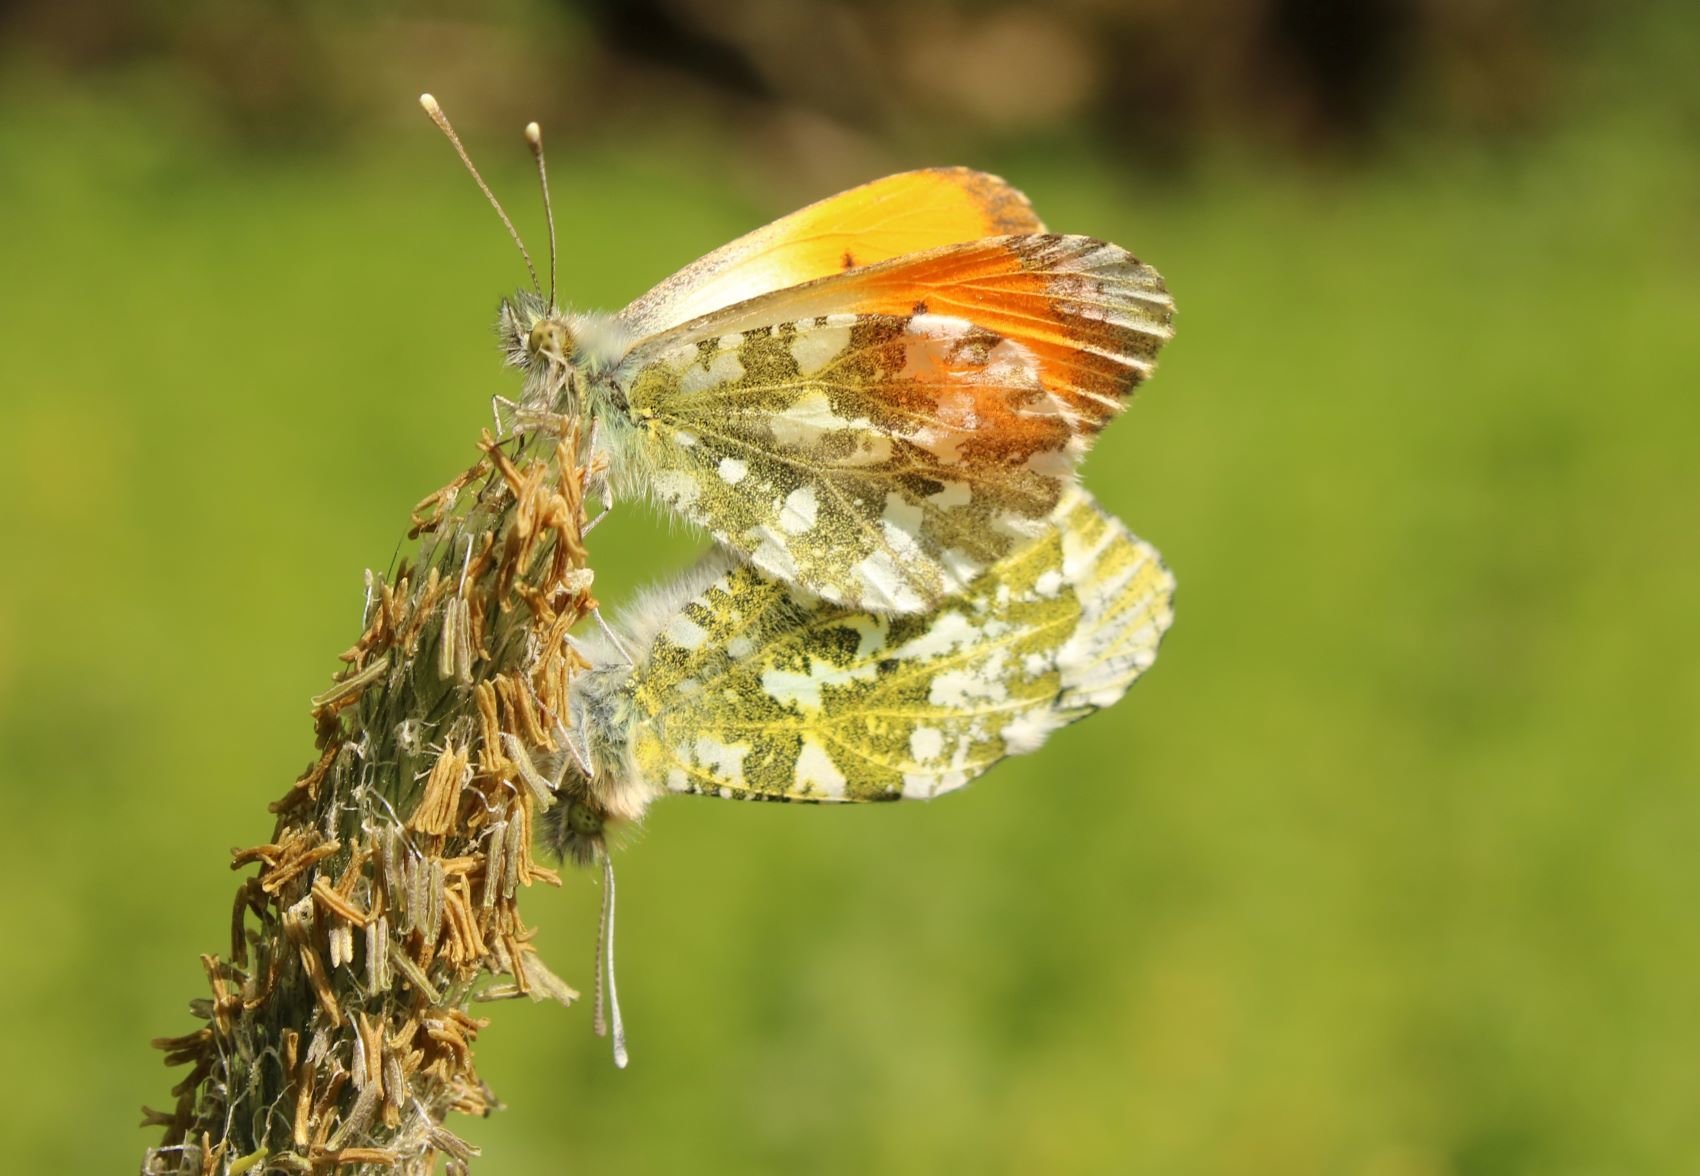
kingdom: Animalia
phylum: Arthropoda
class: Insecta
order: Lepidoptera
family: Pieridae
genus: Anthocharis
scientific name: Anthocharis cardamines
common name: Orange-tip
